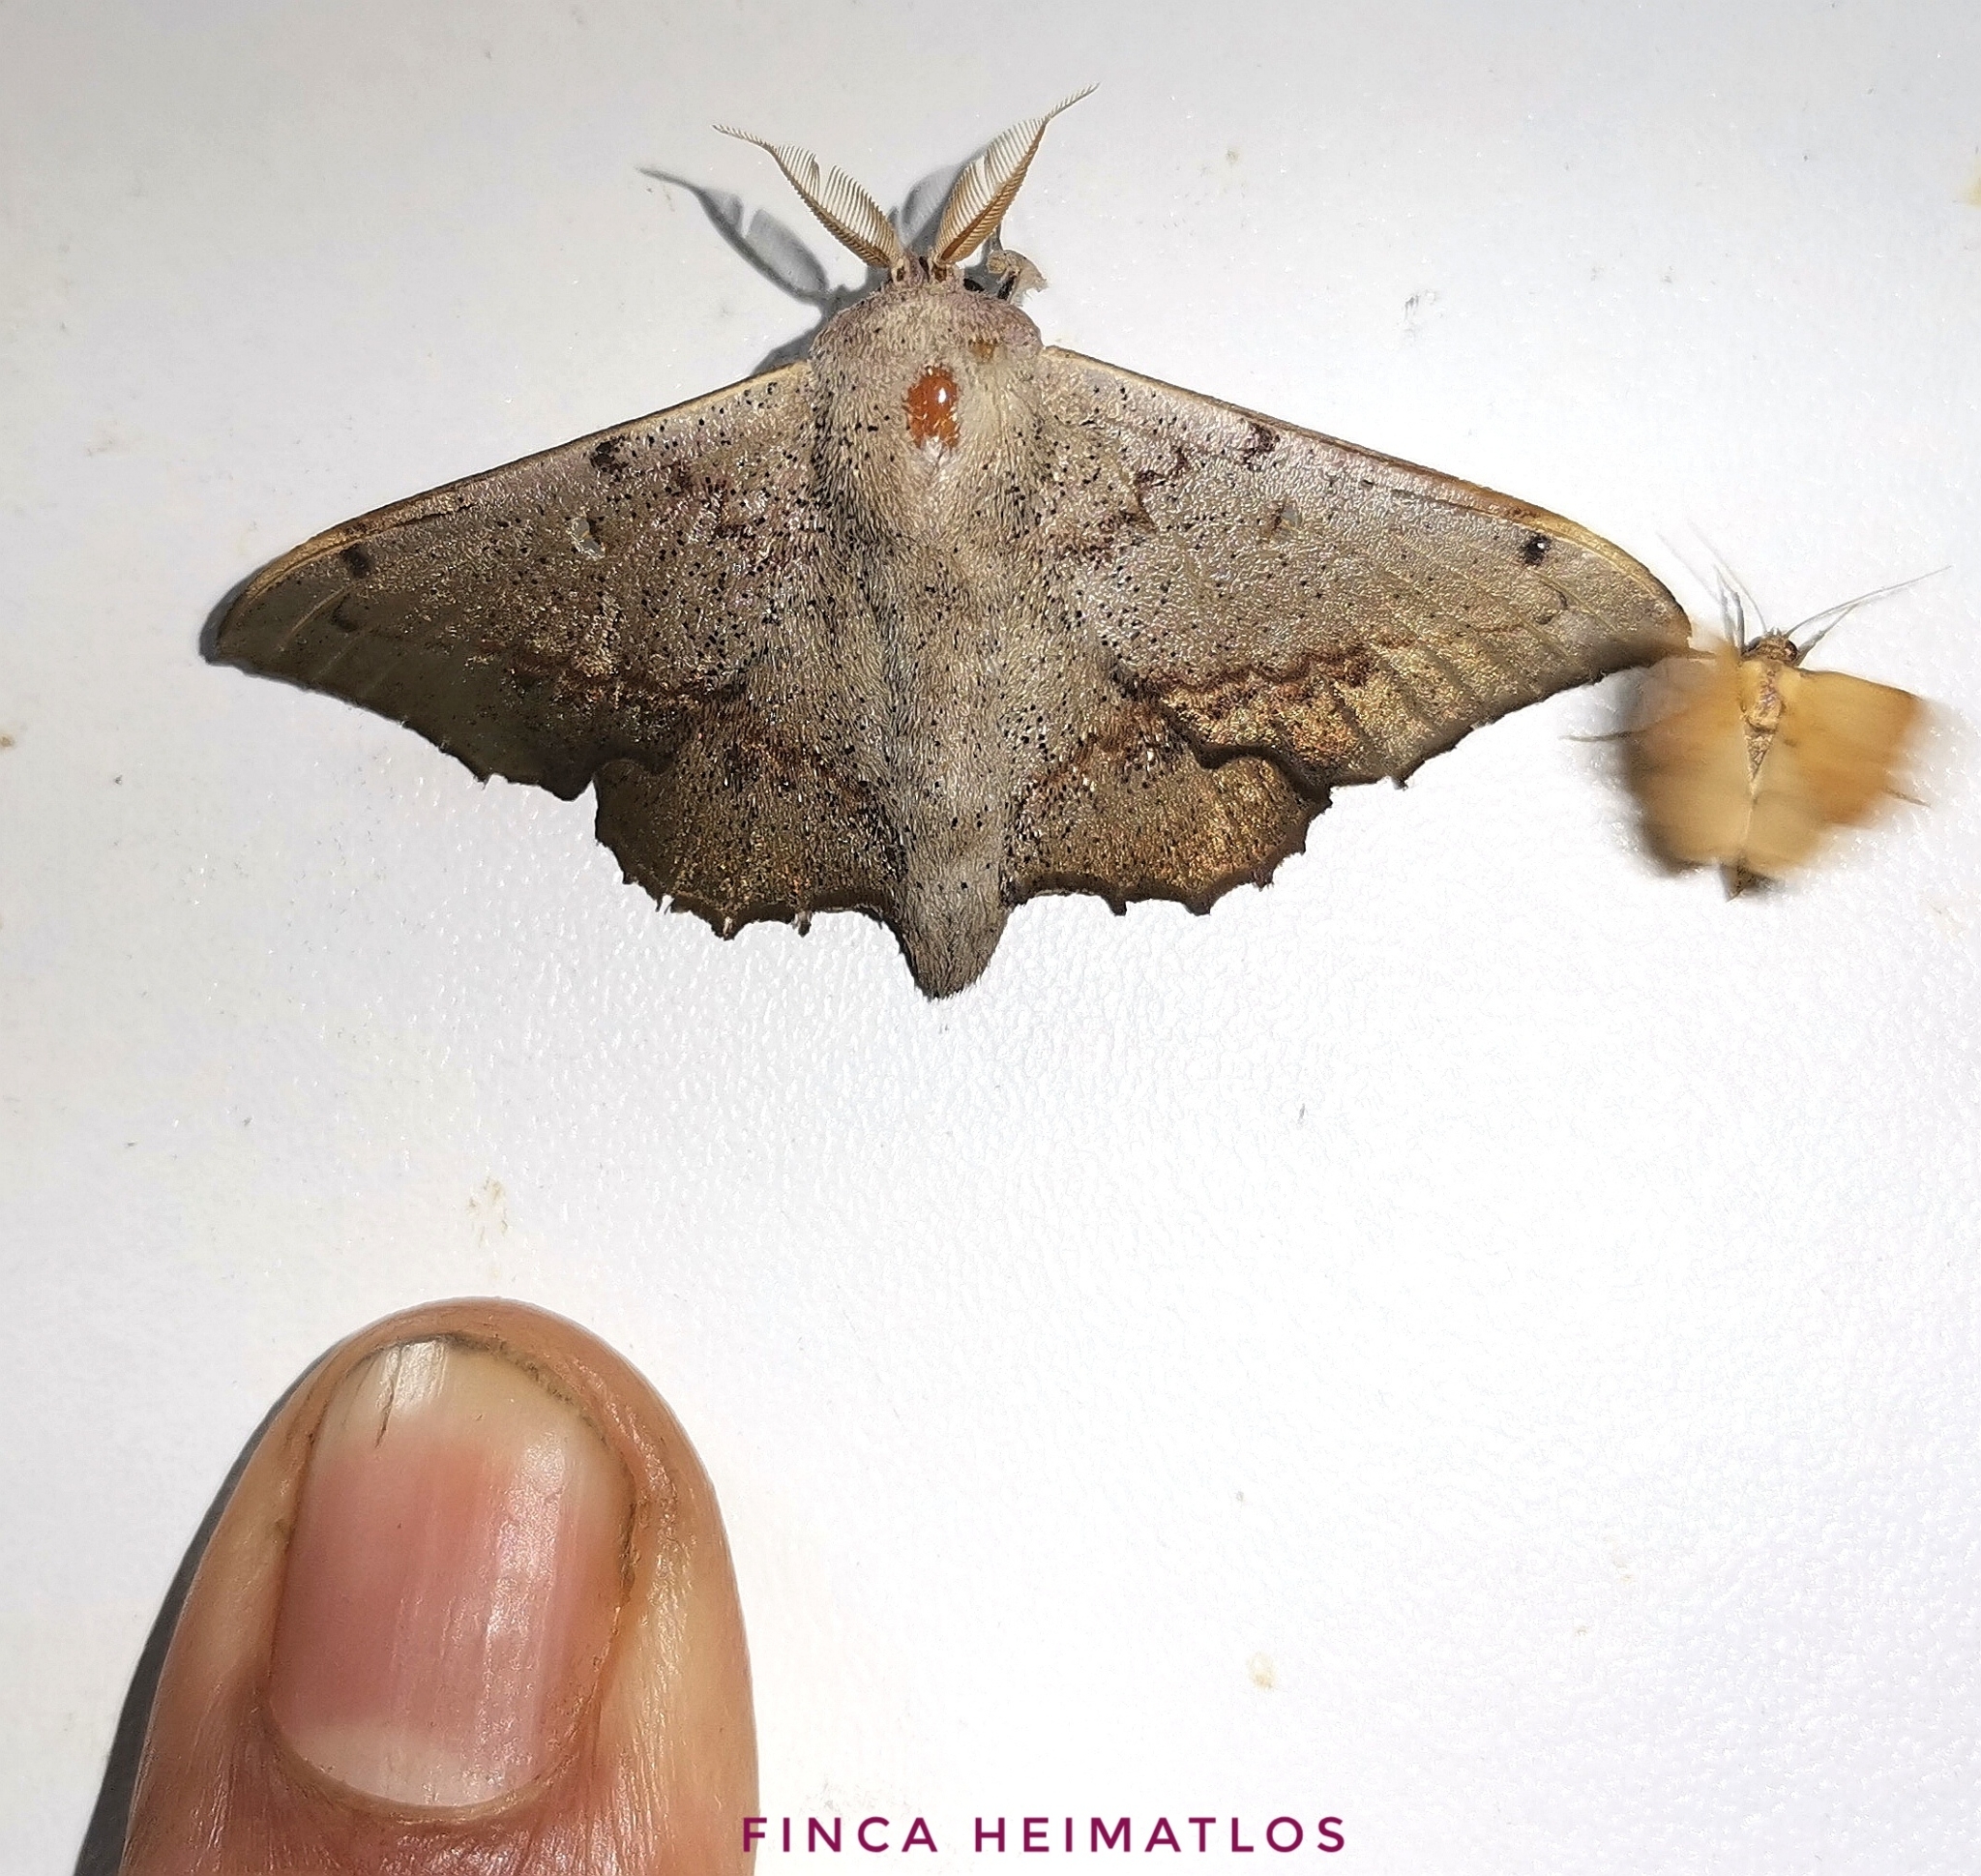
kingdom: Animalia
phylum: Arthropoda
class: Insecta
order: Lepidoptera
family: Mimallonidae
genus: Mimallo
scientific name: Mimallo brosica
